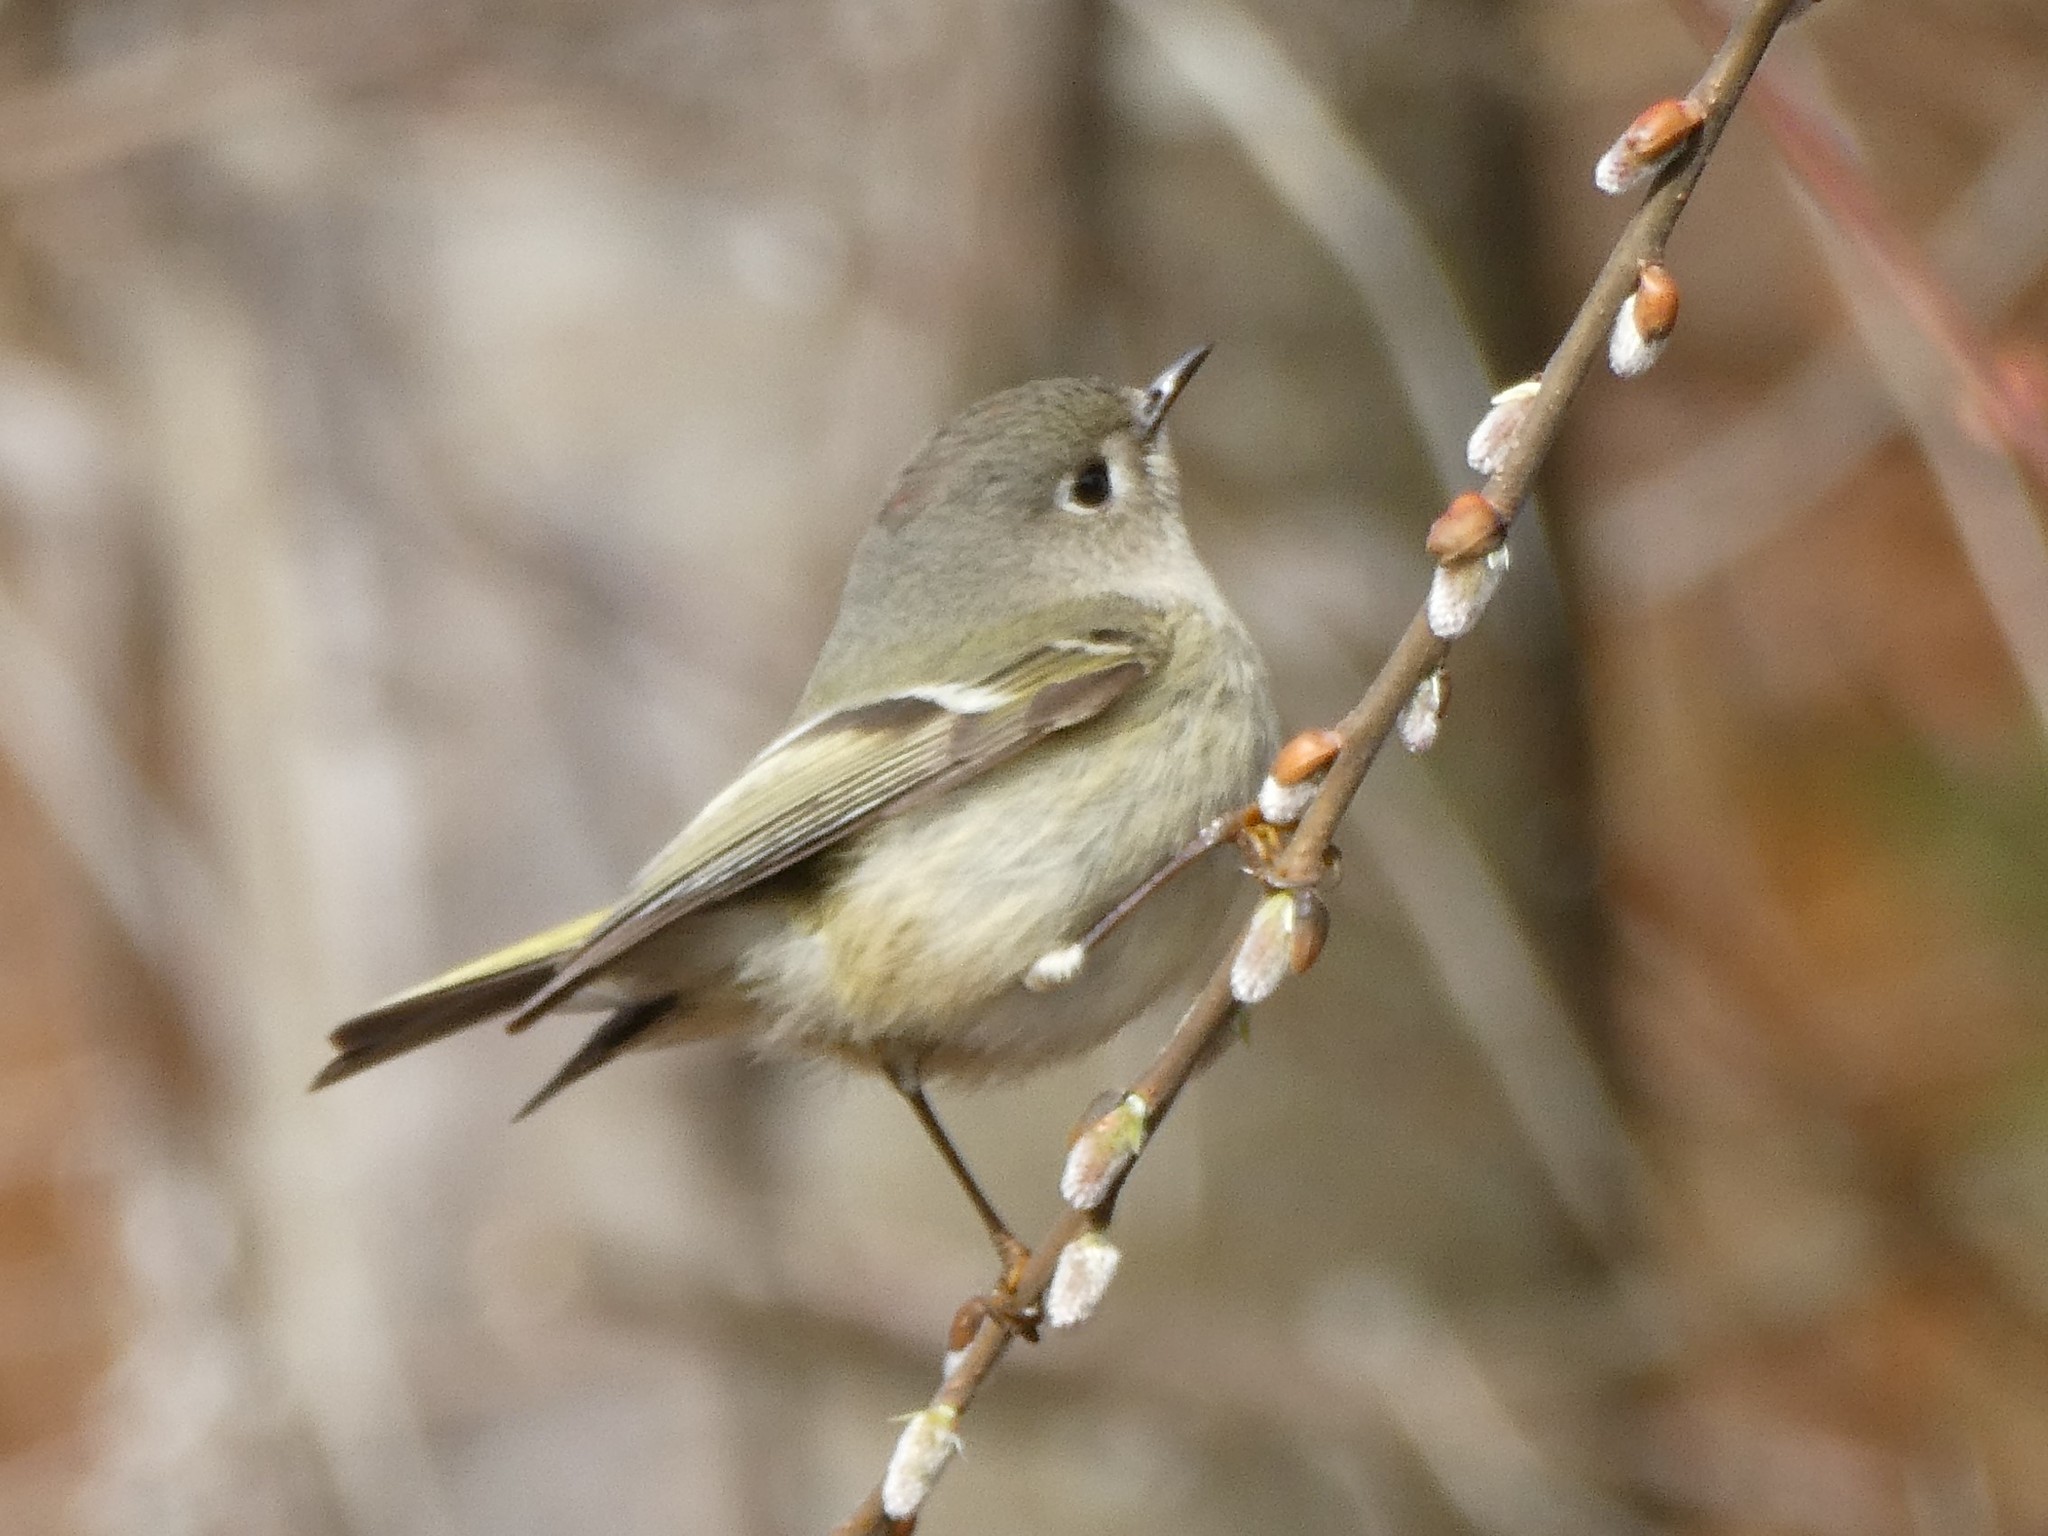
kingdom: Animalia
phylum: Chordata
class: Aves
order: Passeriformes
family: Regulidae
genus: Regulus
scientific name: Regulus calendula
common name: Ruby-crowned kinglet
